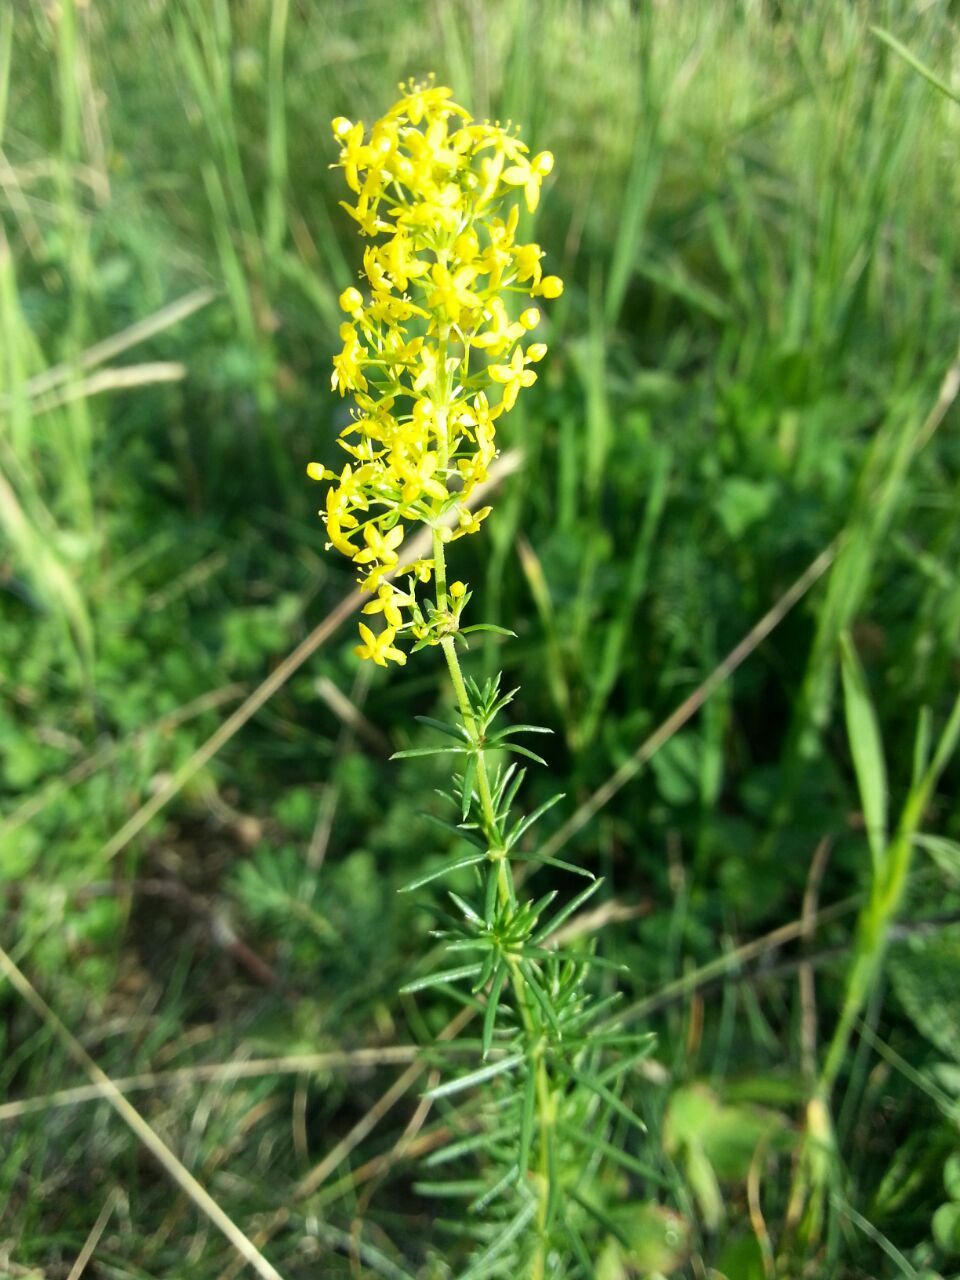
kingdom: Plantae
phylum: Tracheophyta
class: Magnoliopsida
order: Gentianales
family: Rubiaceae
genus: Galium
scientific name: Galium verum
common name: Lady's bedstraw
